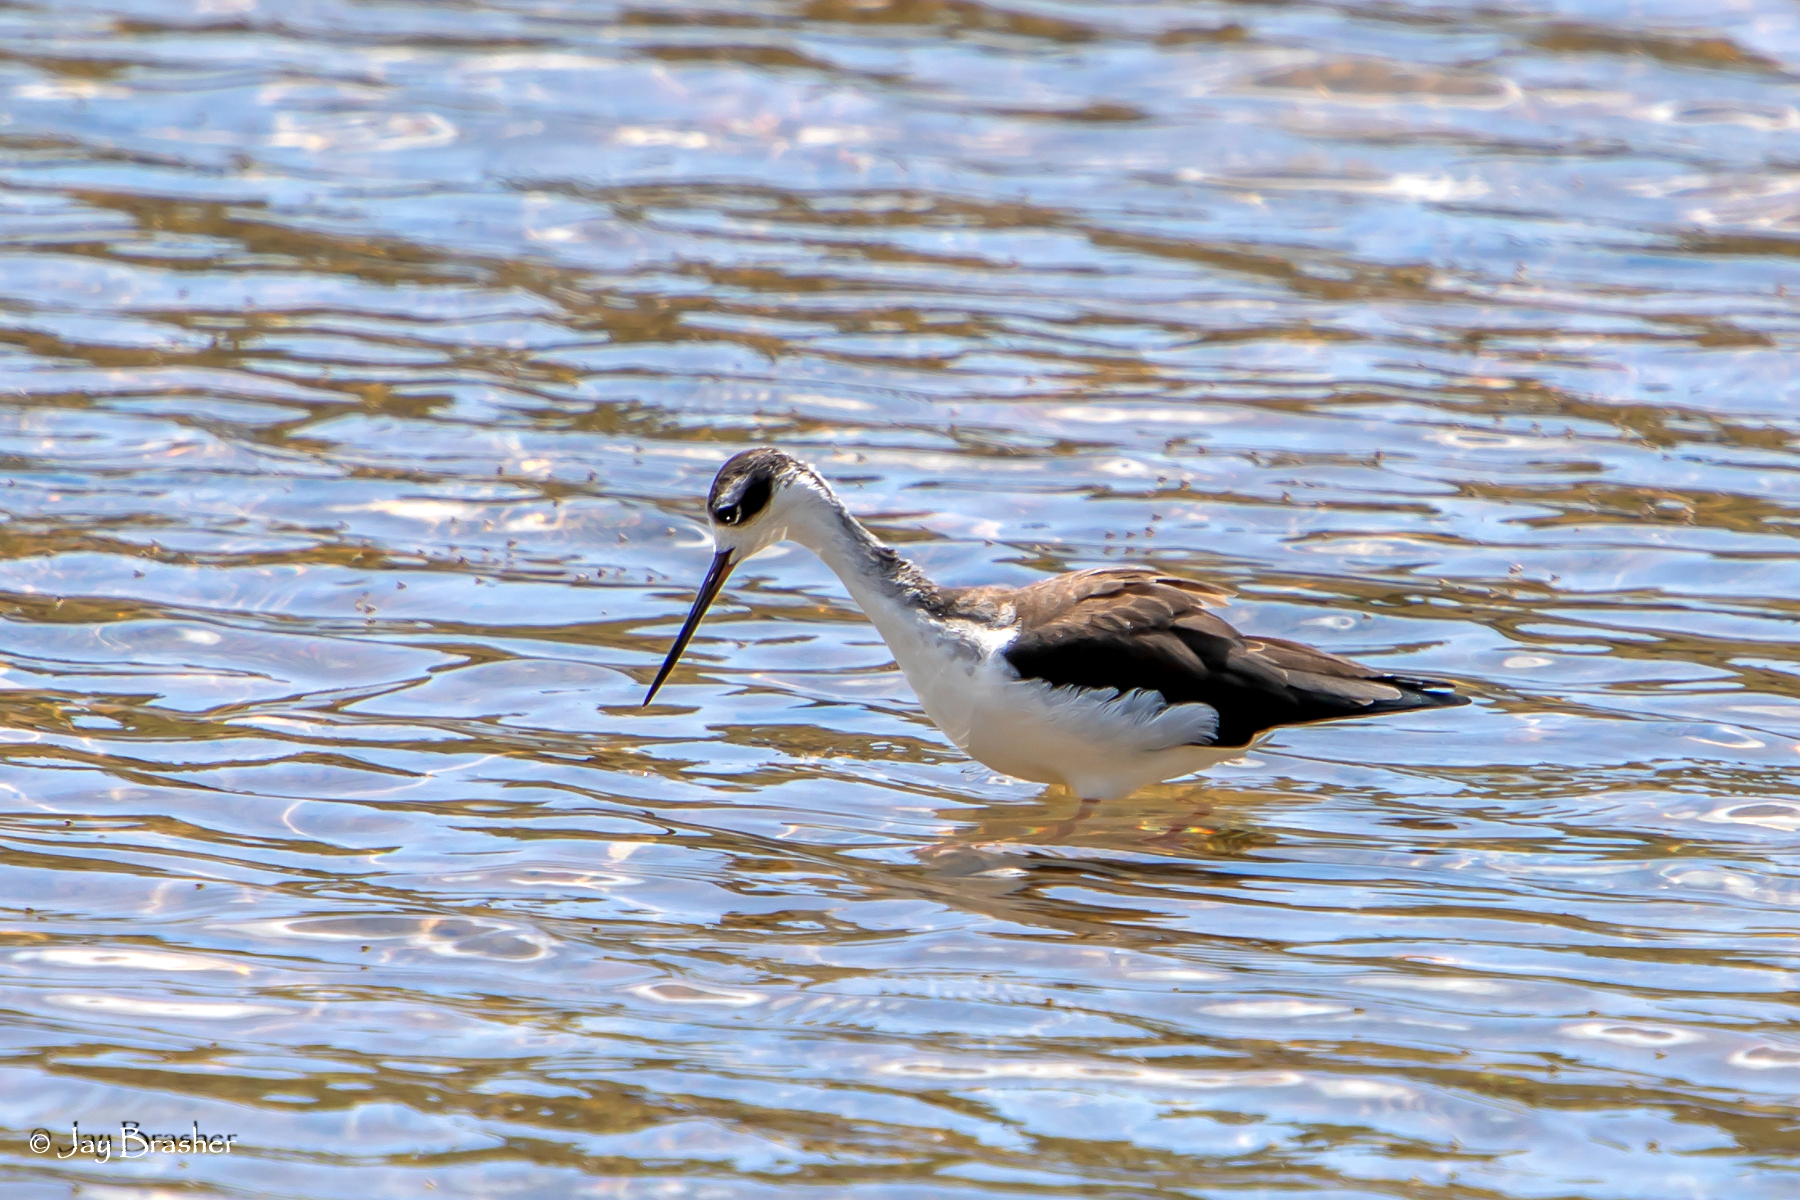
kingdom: Animalia
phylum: Chordata
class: Aves
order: Charadriiformes
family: Recurvirostridae
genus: Himantopus
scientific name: Himantopus mexicanus
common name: Black-necked stilt
